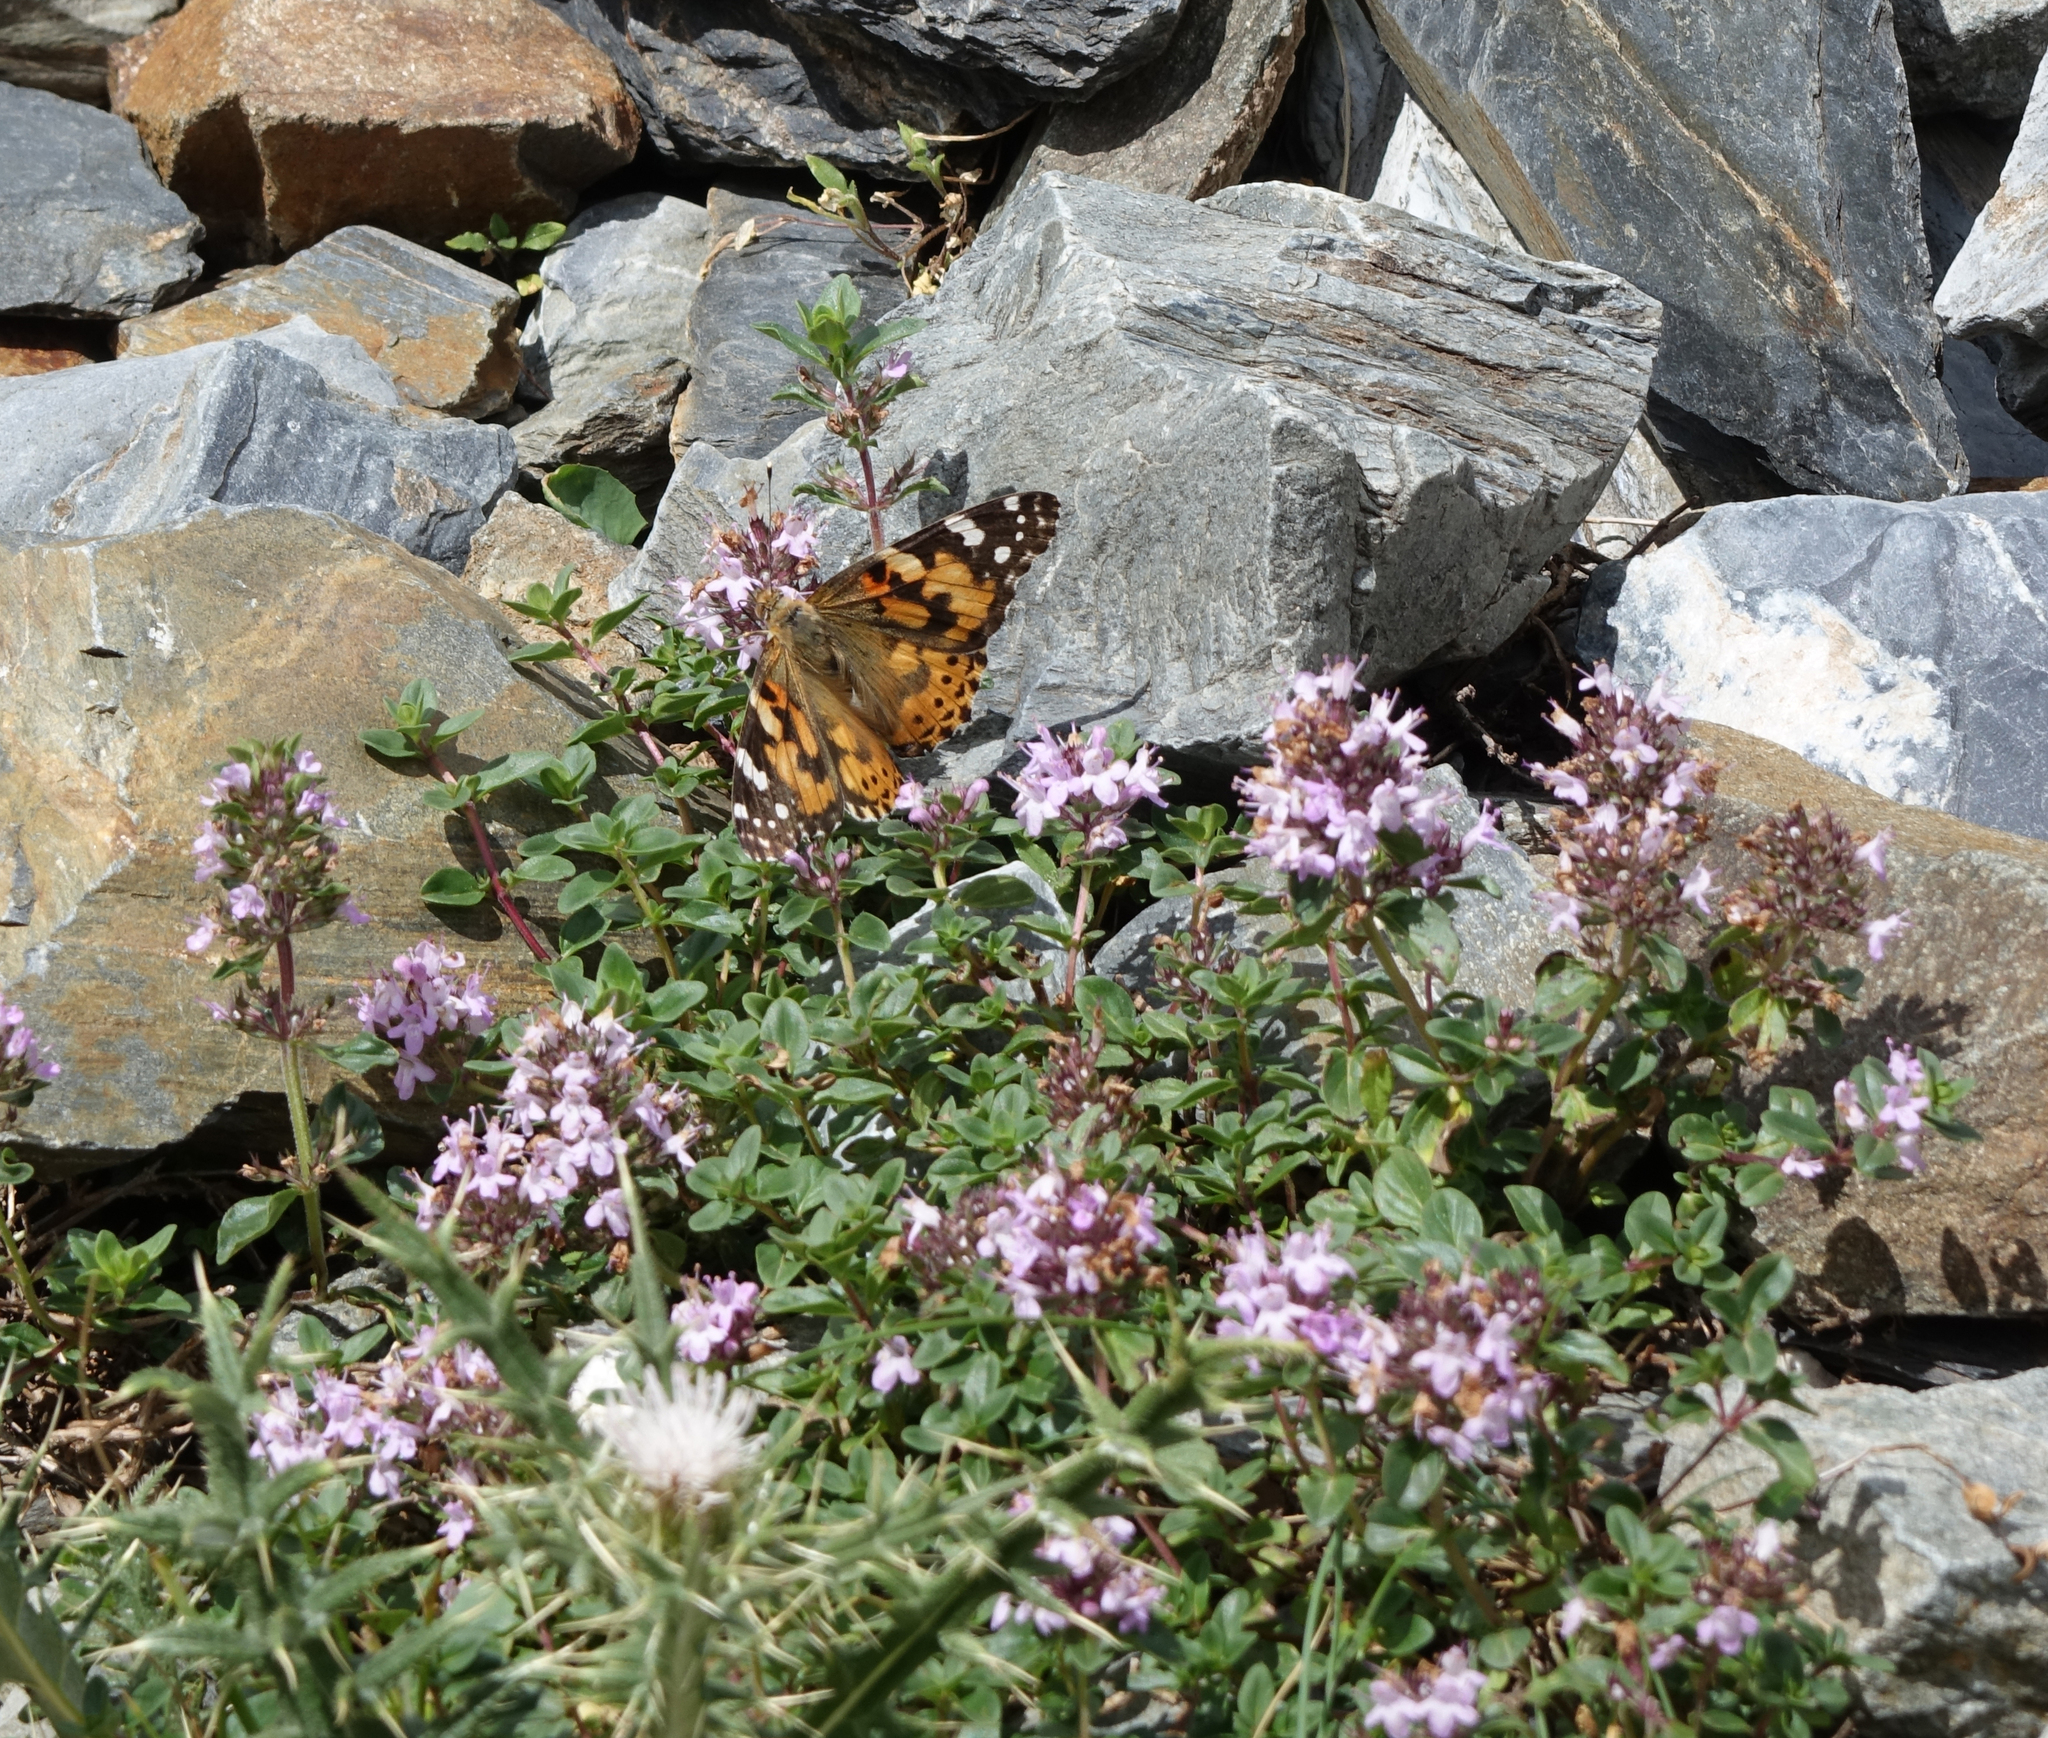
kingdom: Animalia
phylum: Arthropoda
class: Insecta
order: Lepidoptera
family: Nymphalidae
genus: Vanessa
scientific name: Vanessa cardui
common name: Painted lady
